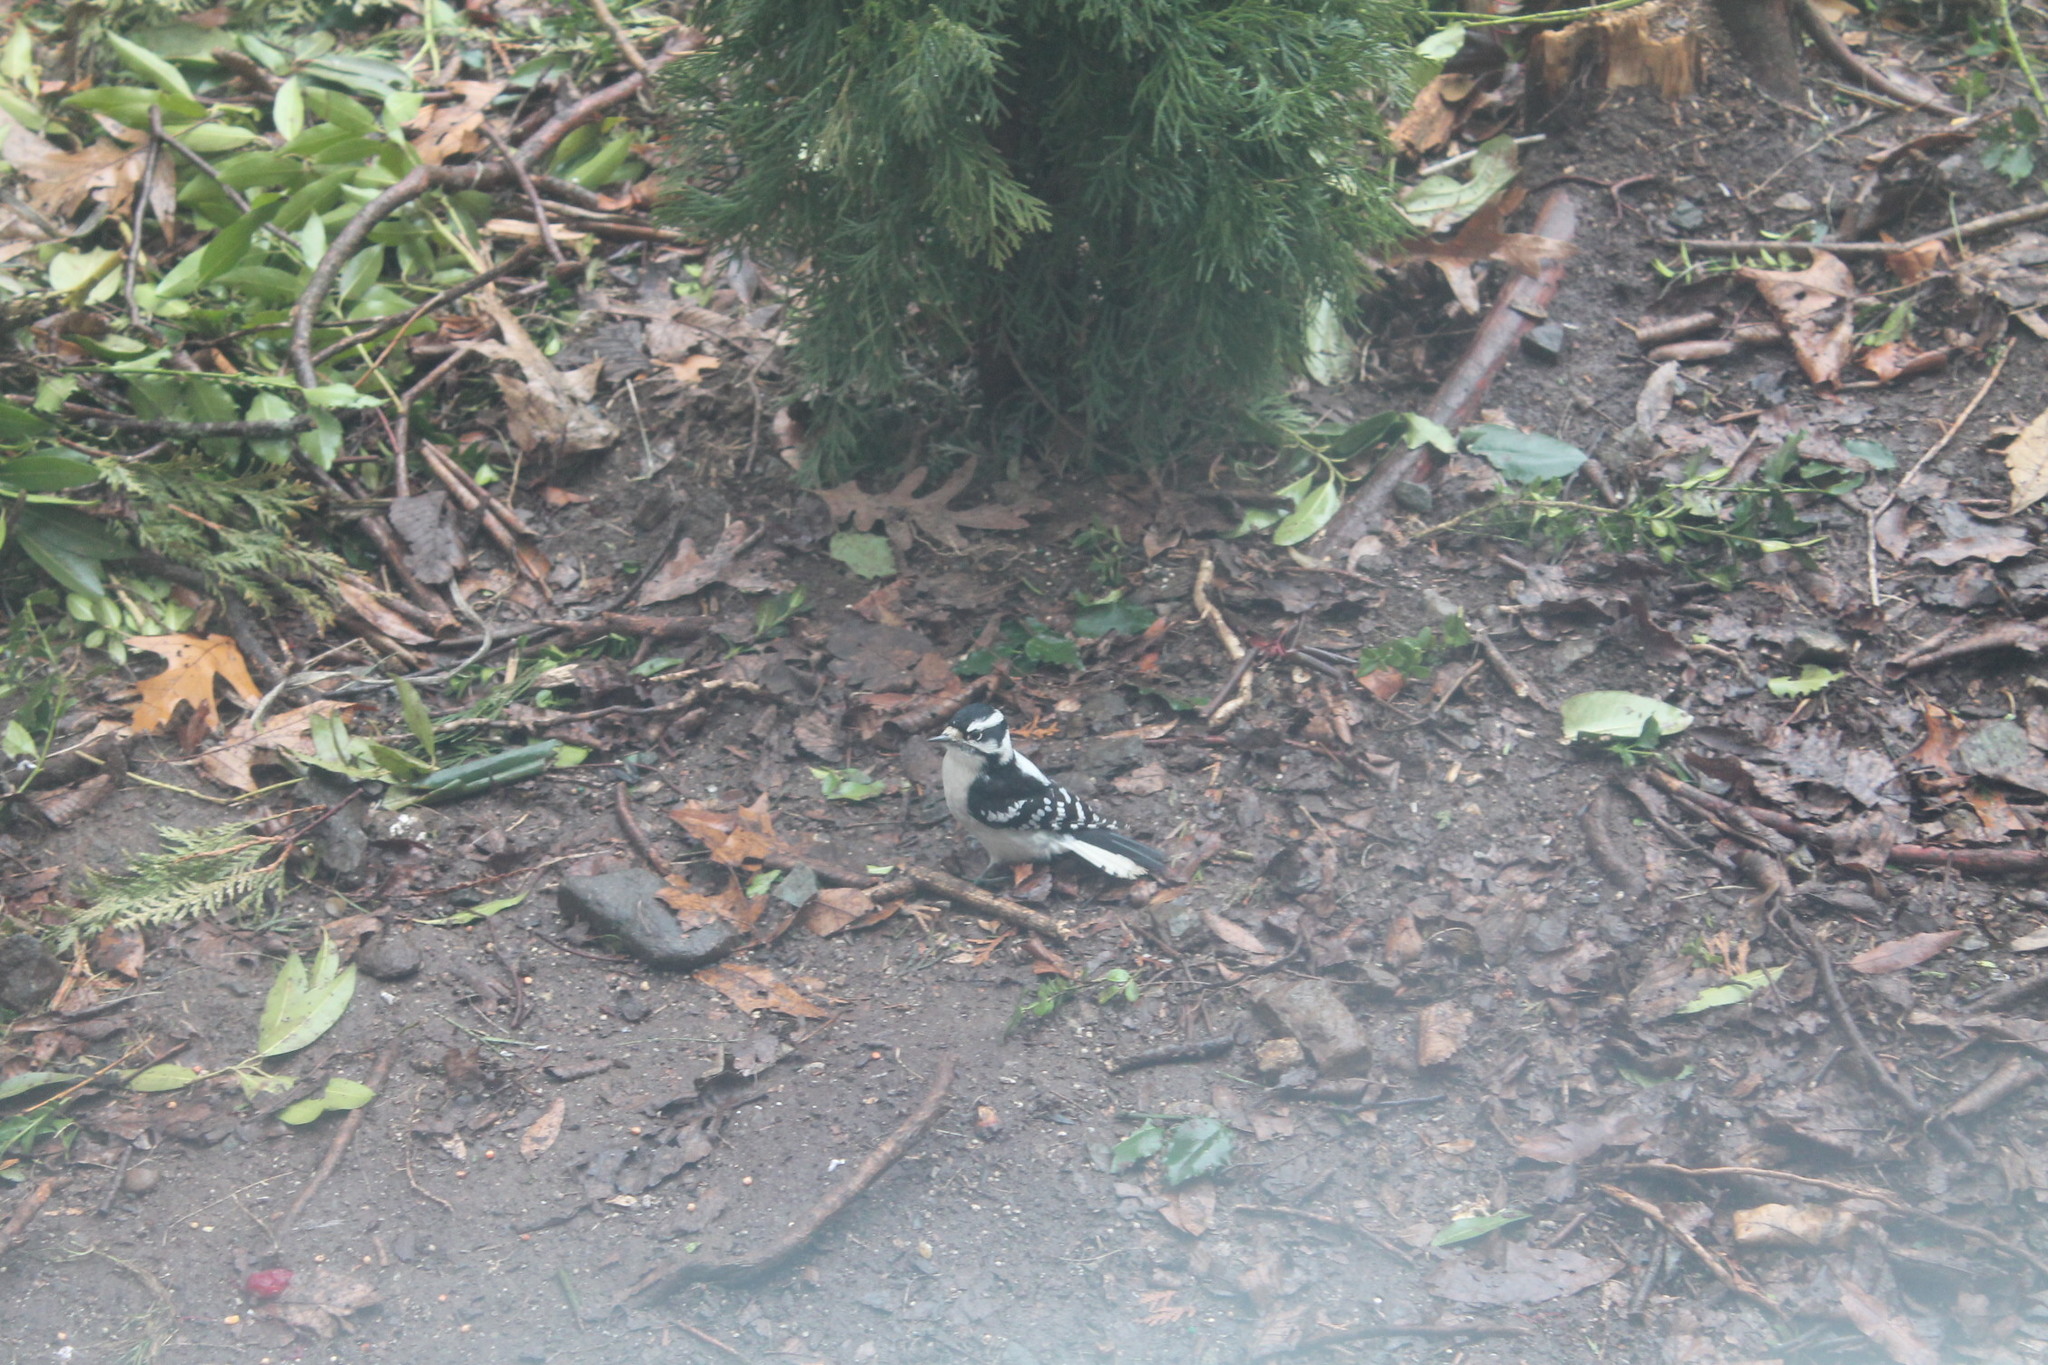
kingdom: Animalia
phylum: Chordata
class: Aves
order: Piciformes
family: Picidae
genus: Dryobates
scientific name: Dryobates pubescens
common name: Downy woodpecker
